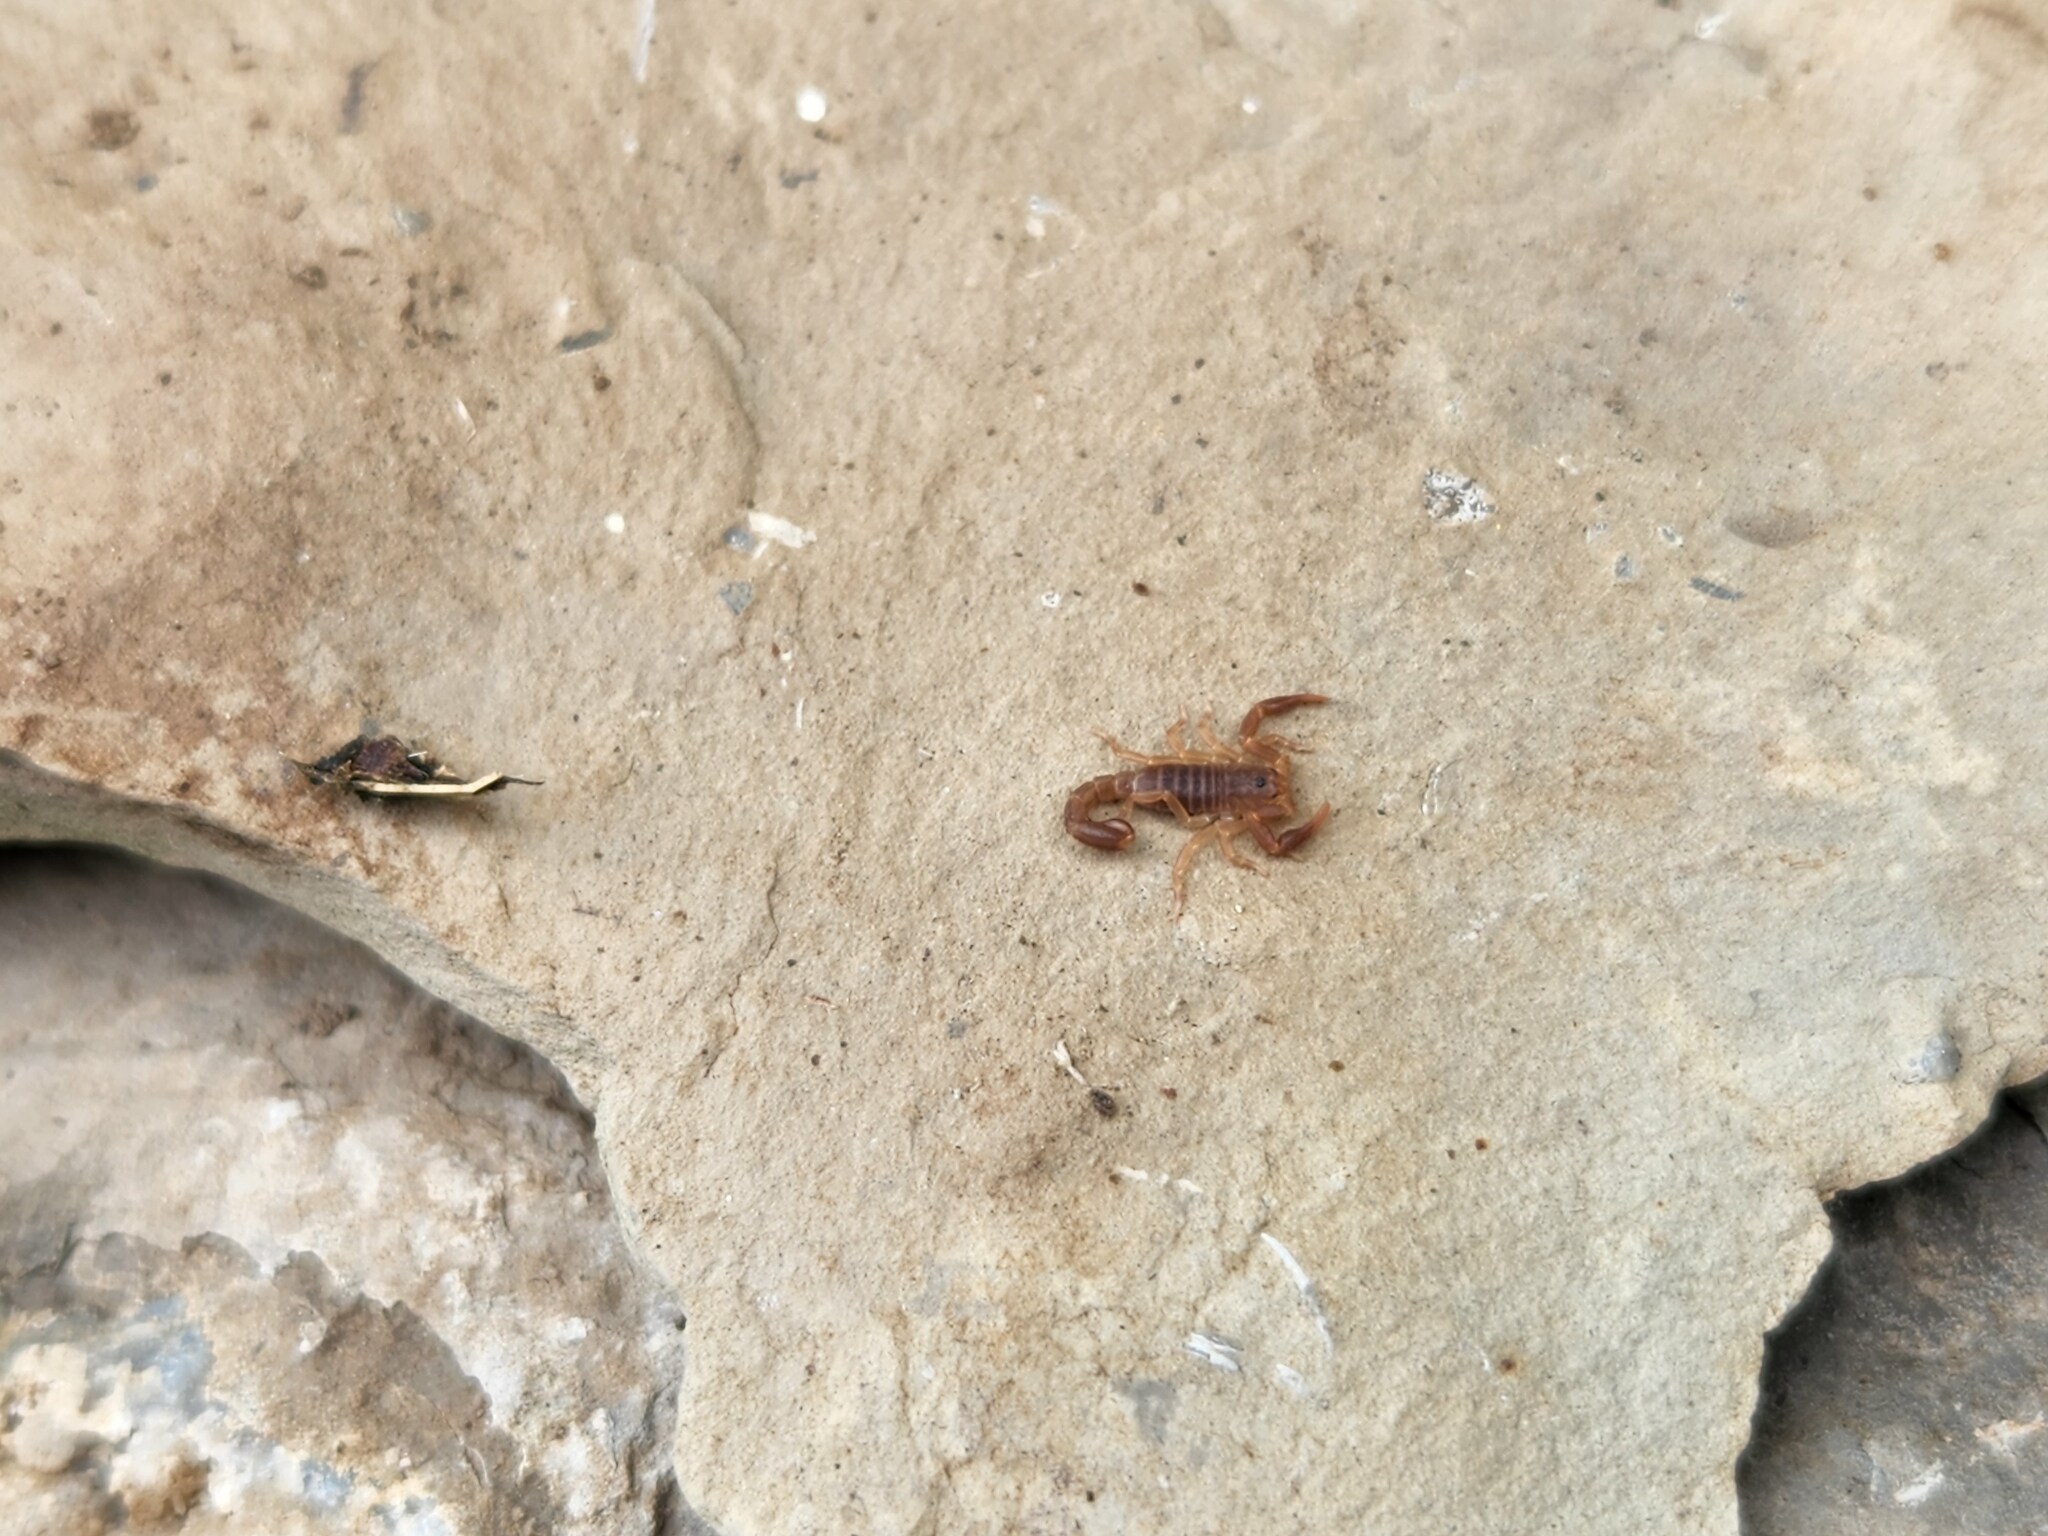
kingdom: Animalia
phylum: Arthropoda
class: Arachnida
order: Scorpiones
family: Vaejovidae
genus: Vaejovis
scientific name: Vaejovis carolinianus
